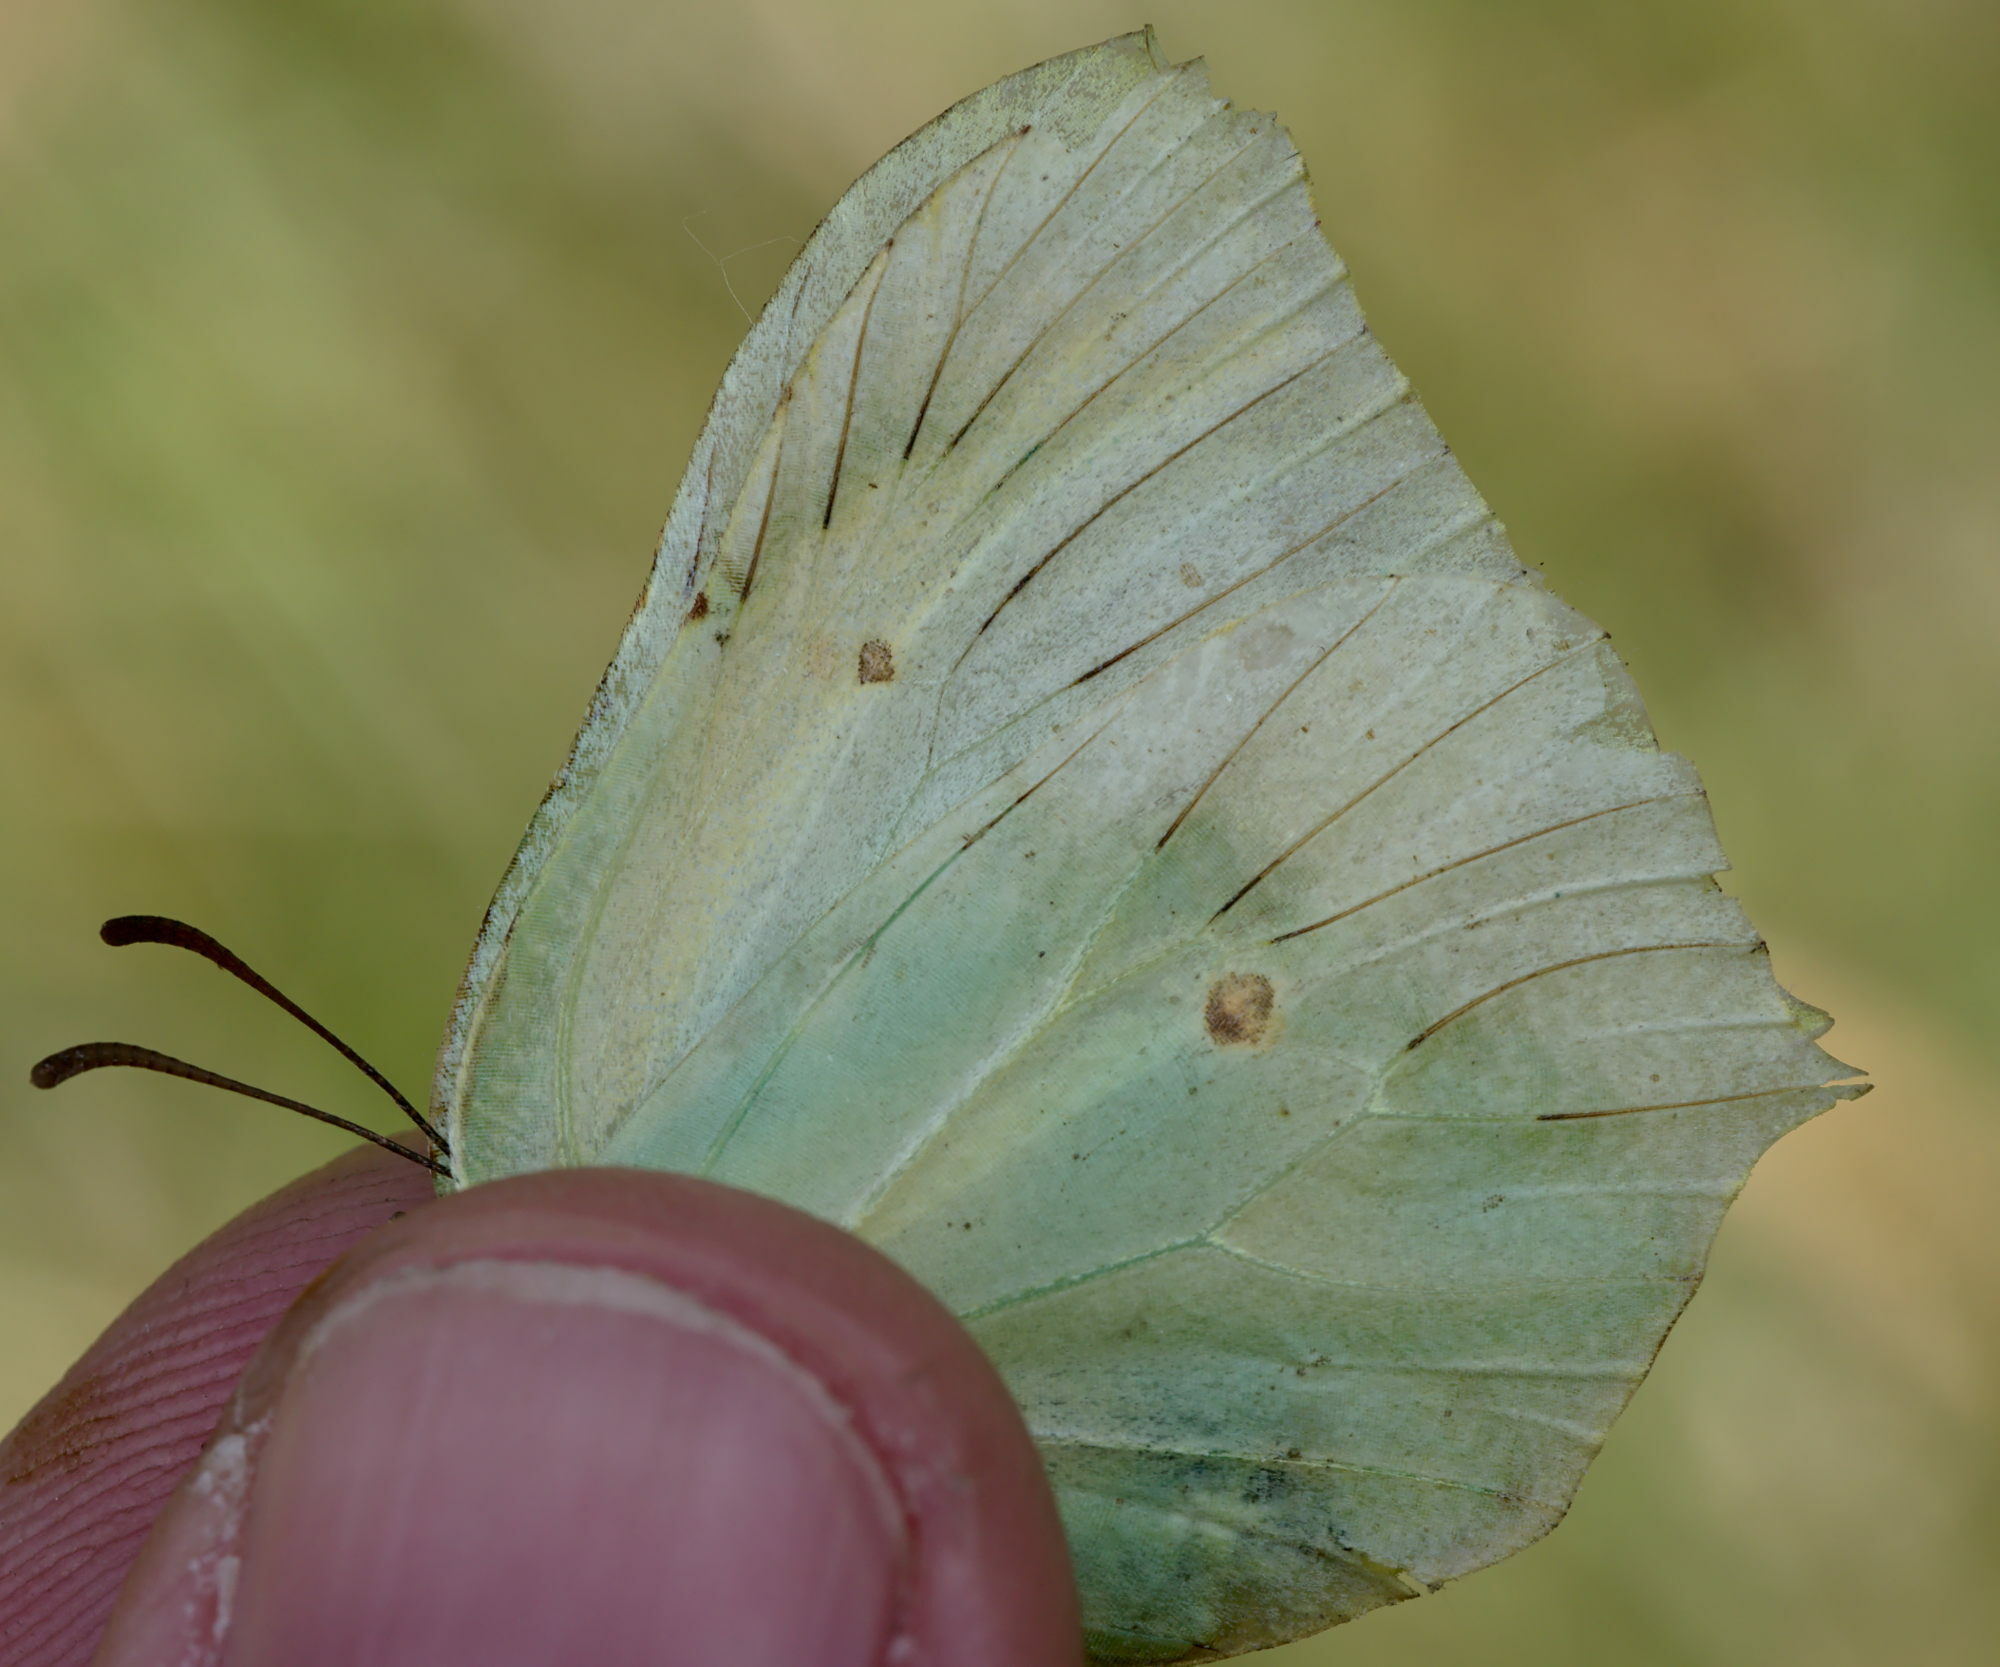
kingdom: Animalia
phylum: Arthropoda
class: Insecta
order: Lepidoptera
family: Pieridae
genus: Gonepteryx
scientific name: Gonepteryx rhamni
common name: Brimstone
